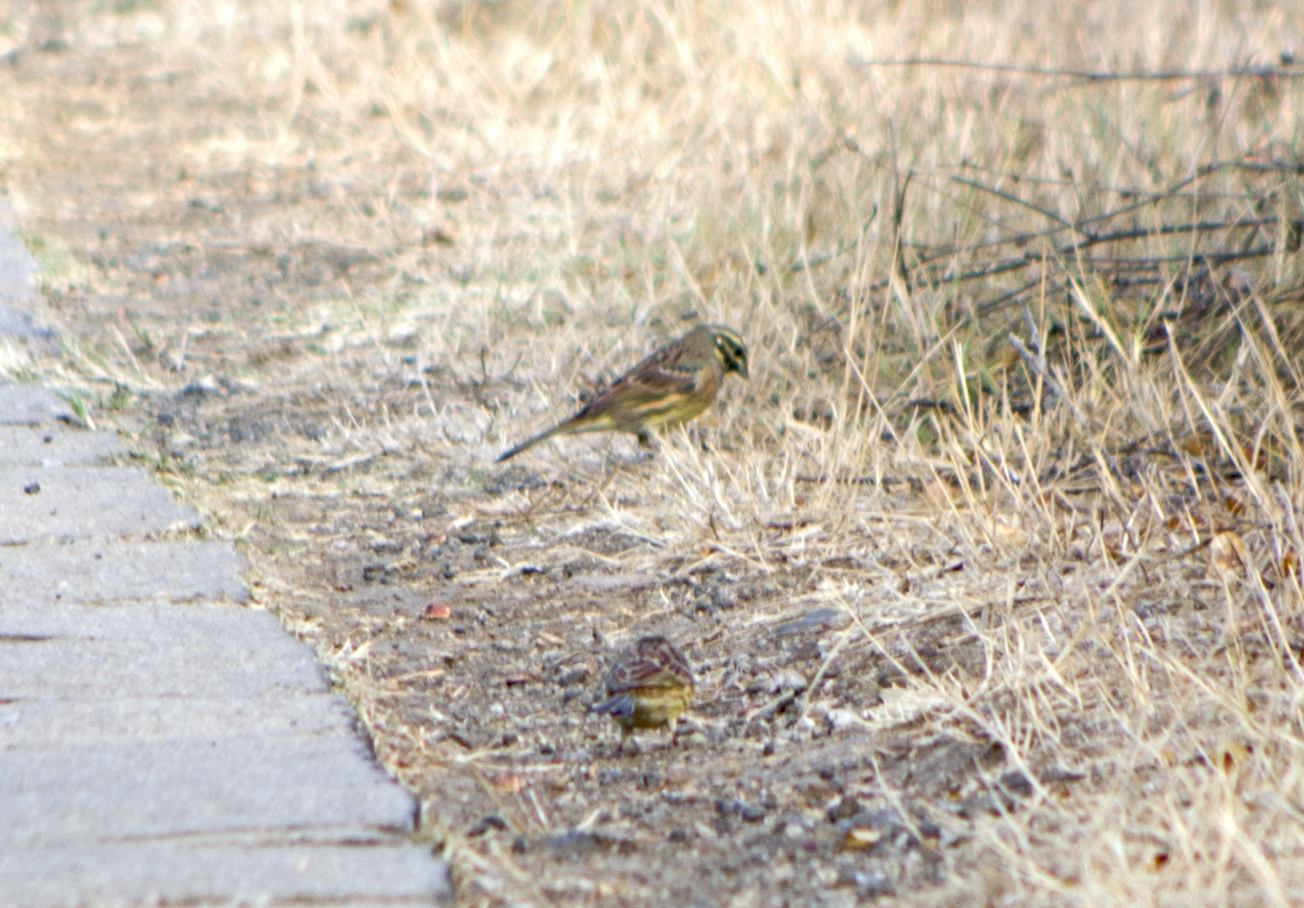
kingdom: Animalia
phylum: Chordata
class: Aves
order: Passeriformes
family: Emberizidae
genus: Emberiza
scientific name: Emberiza cirlus
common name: Cirl bunting
